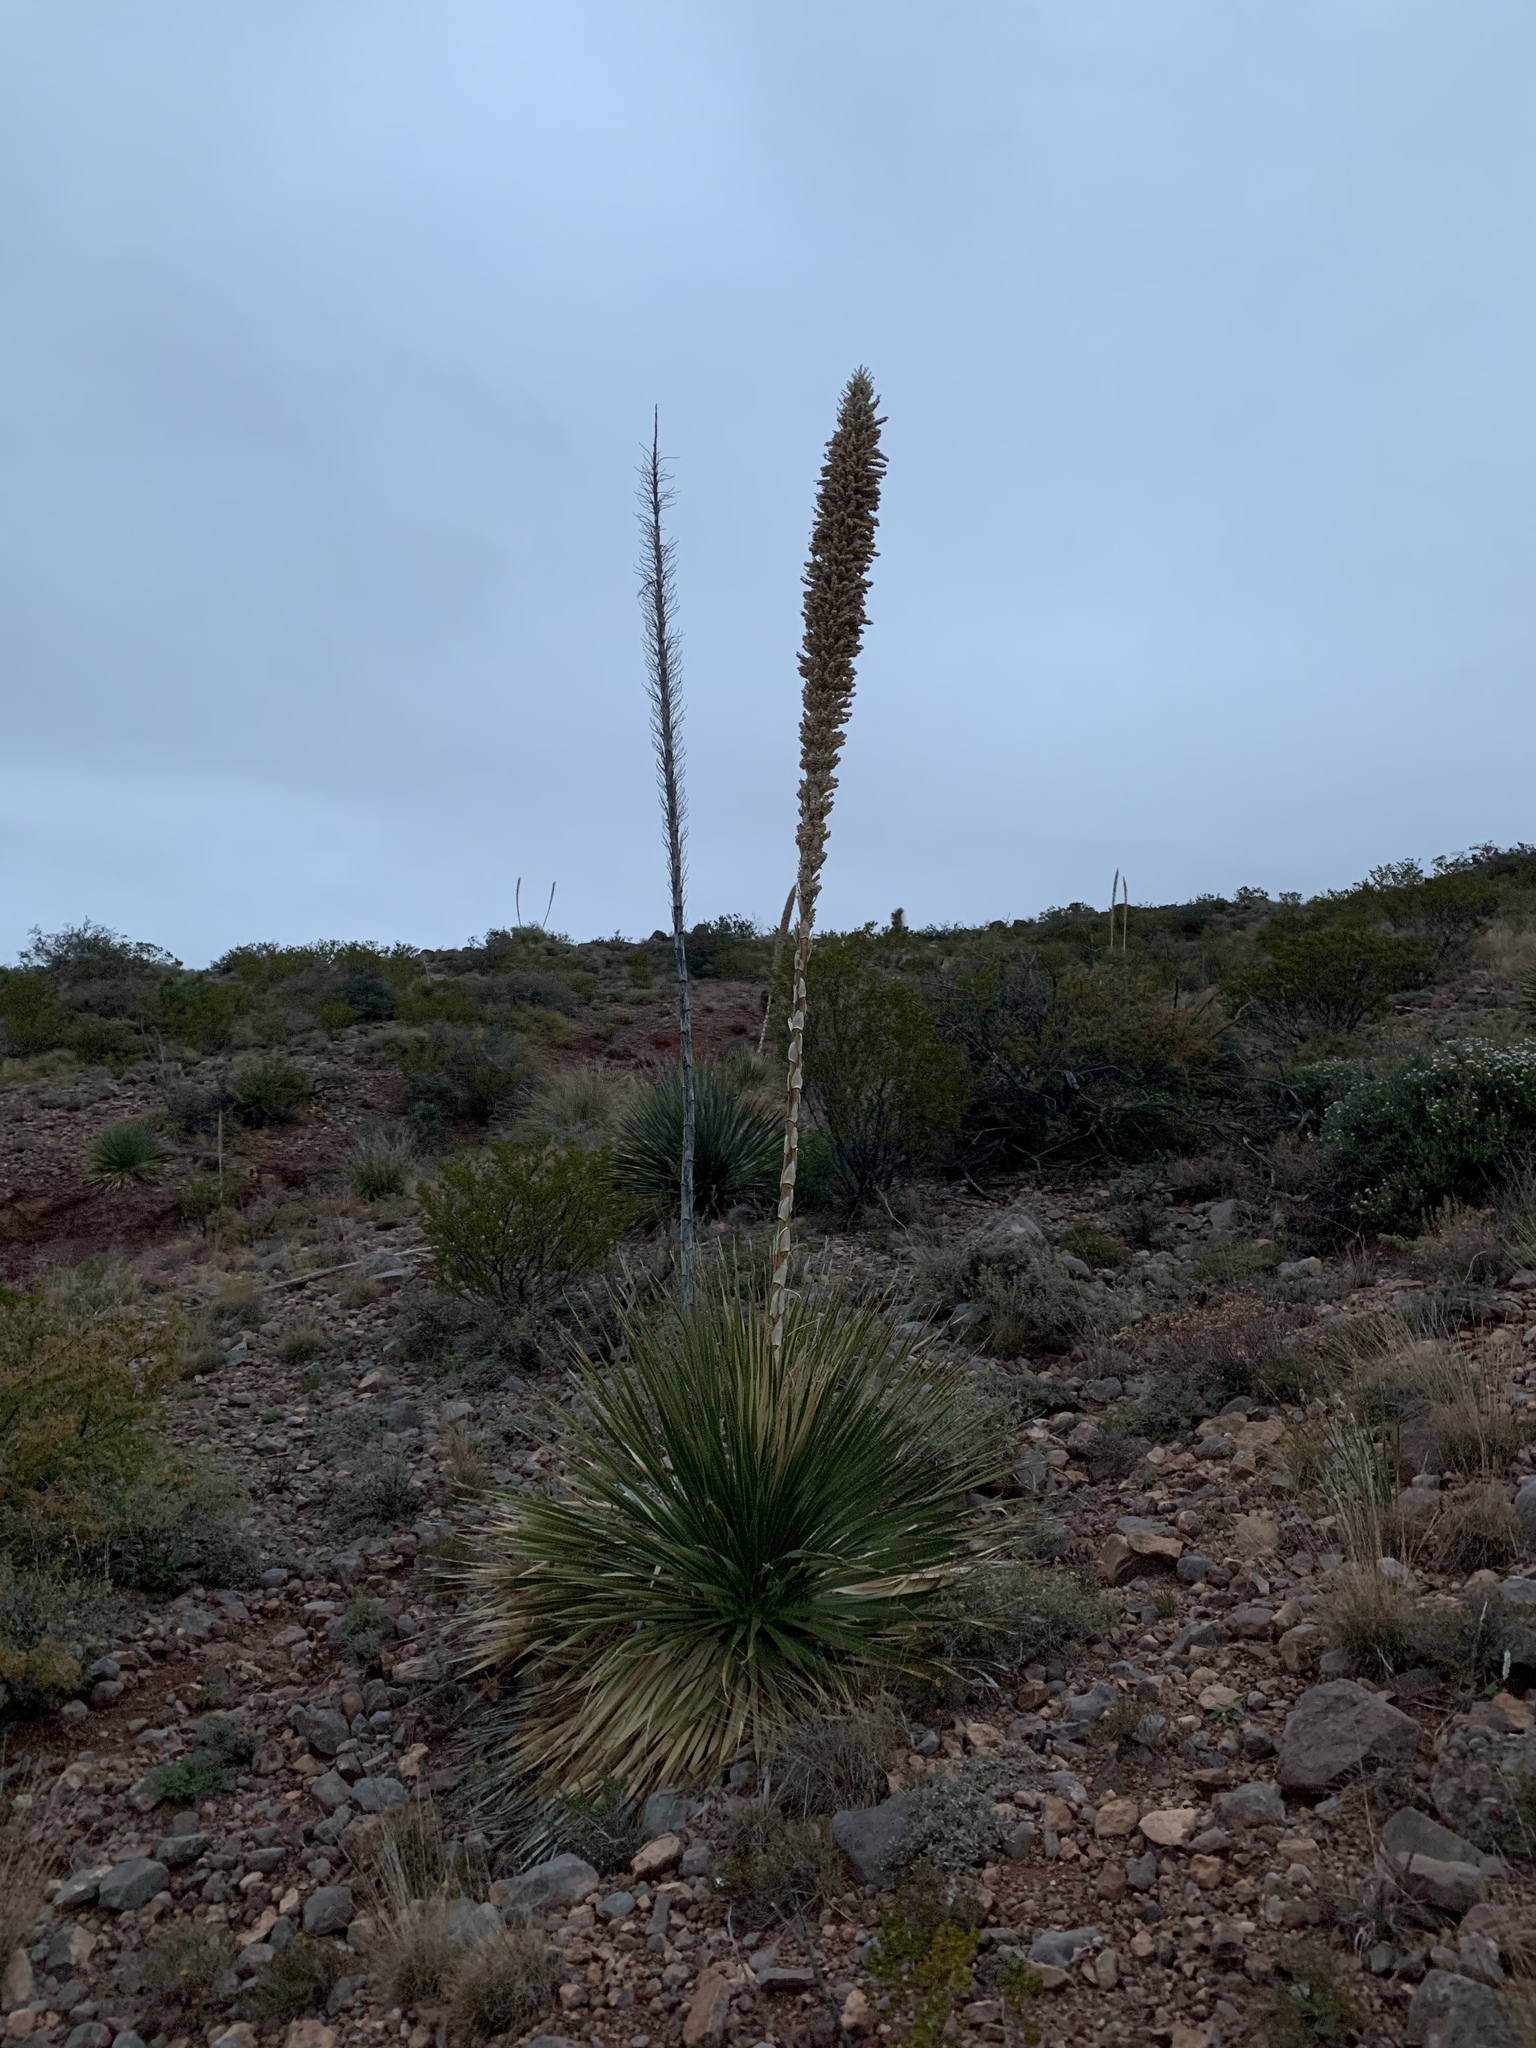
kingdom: Plantae
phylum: Tracheophyta
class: Liliopsida
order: Asparagales
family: Asparagaceae
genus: Dasylirion
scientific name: Dasylirion wheeleri
